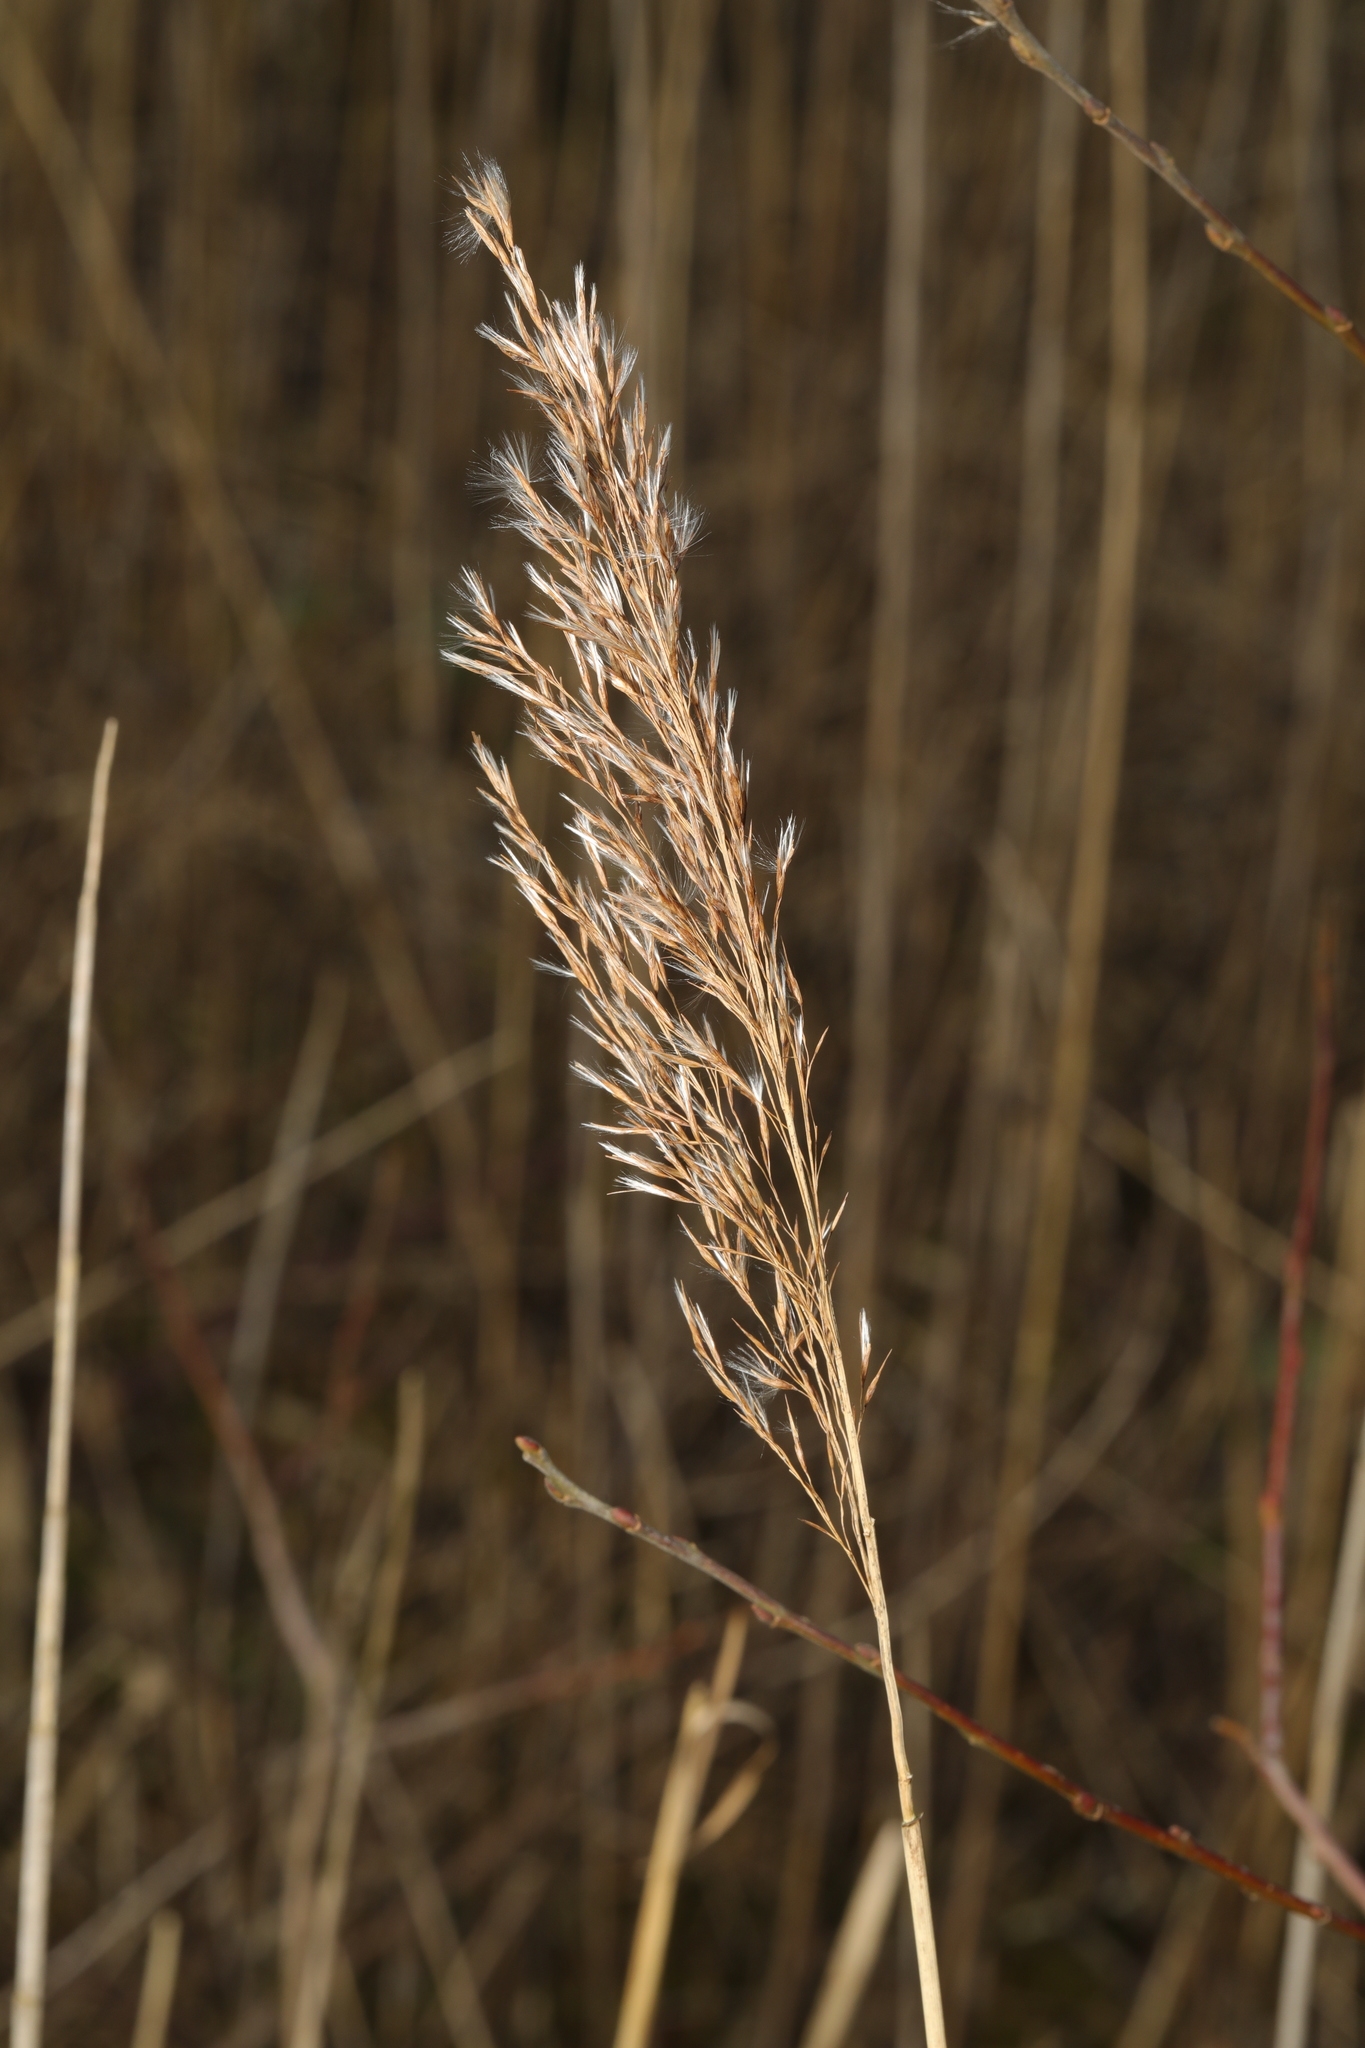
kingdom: Plantae
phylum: Tracheophyta
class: Liliopsida
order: Poales
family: Poaceae
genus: Phragmites
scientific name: Phragmites australis
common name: Common reed
